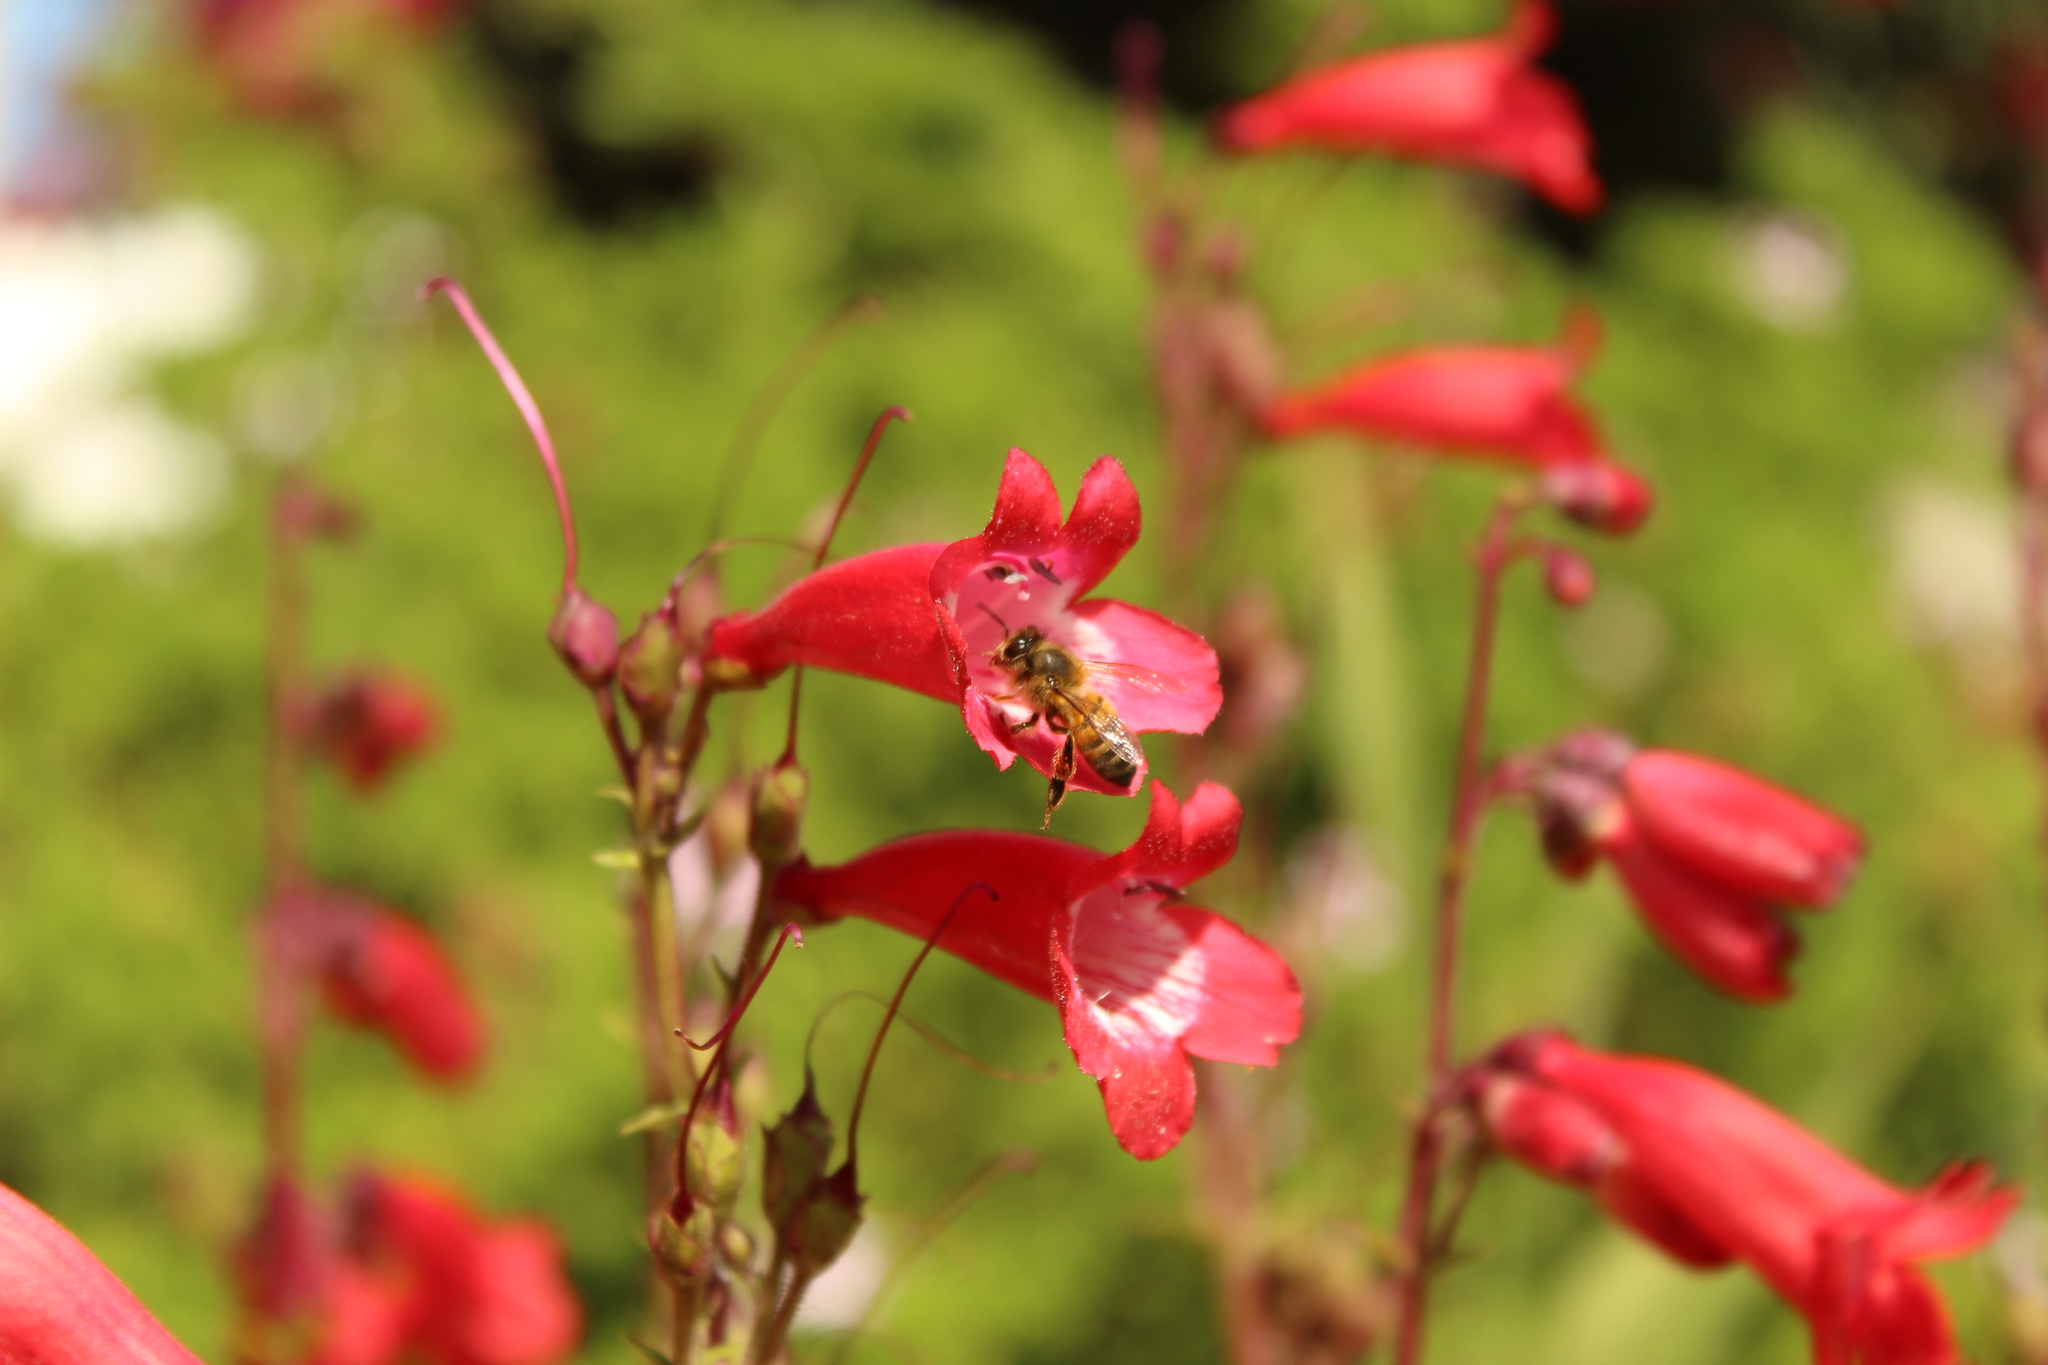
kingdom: Animalia
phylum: Arthropoda
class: Insecta
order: Hymenoptera
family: Apidae
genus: Apis
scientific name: Apis mellifera
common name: Honey bee
